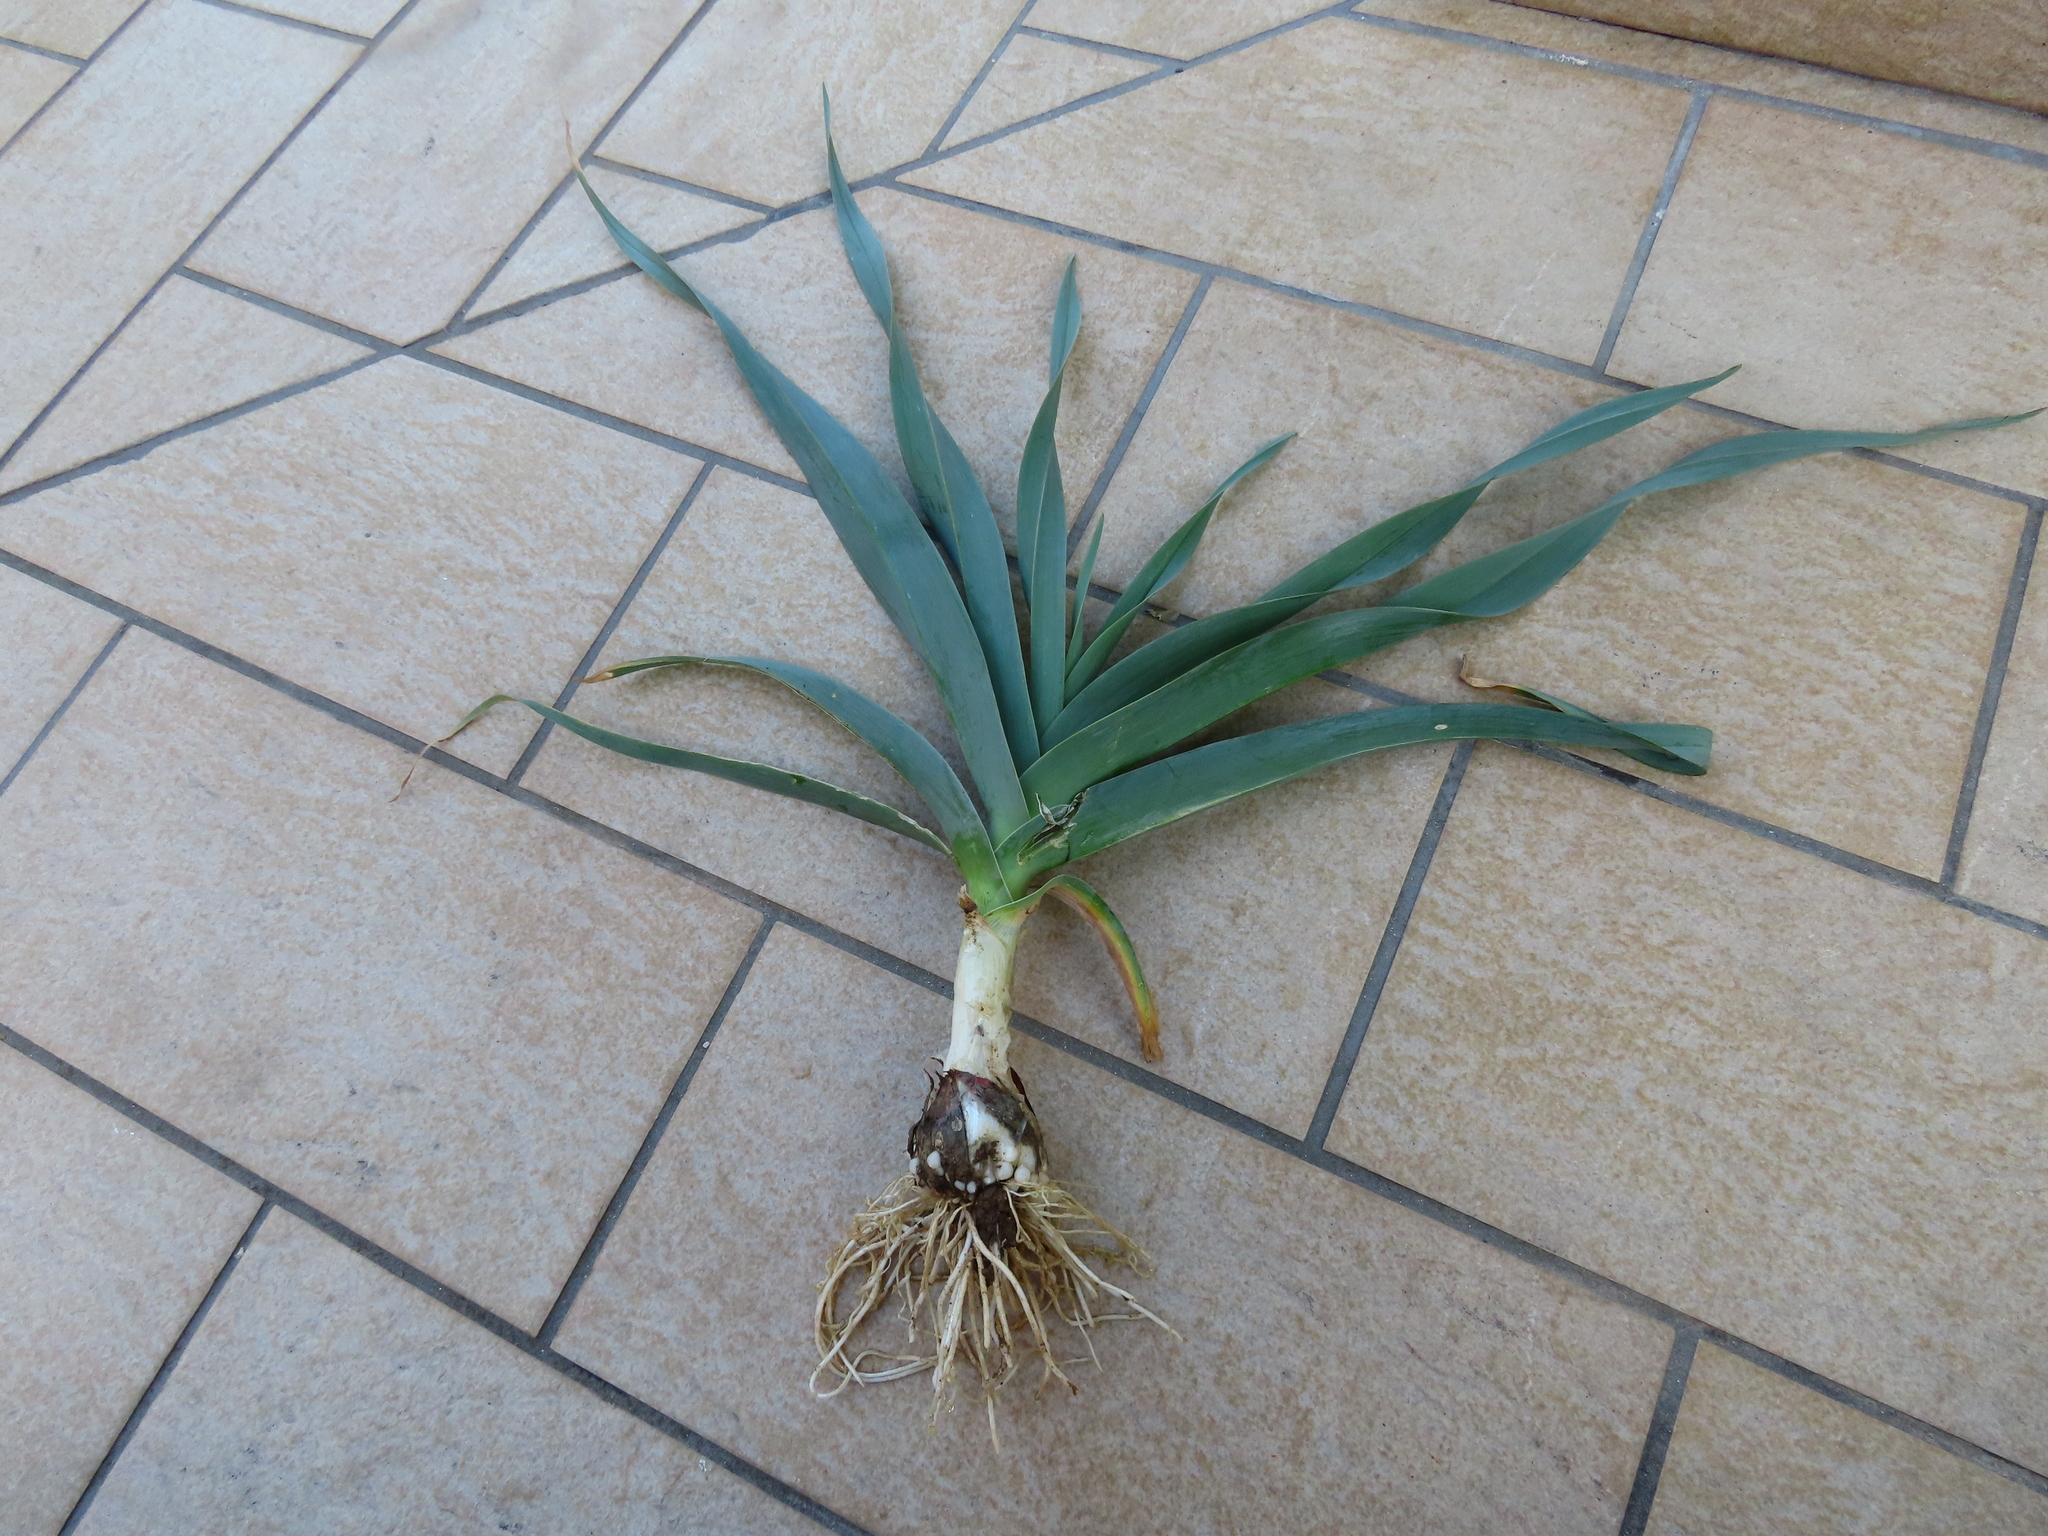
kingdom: Plantae
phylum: Tracheophyta
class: Liliopsida
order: Asparagales
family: Amaryllidaceae
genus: Allium
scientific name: Allium
